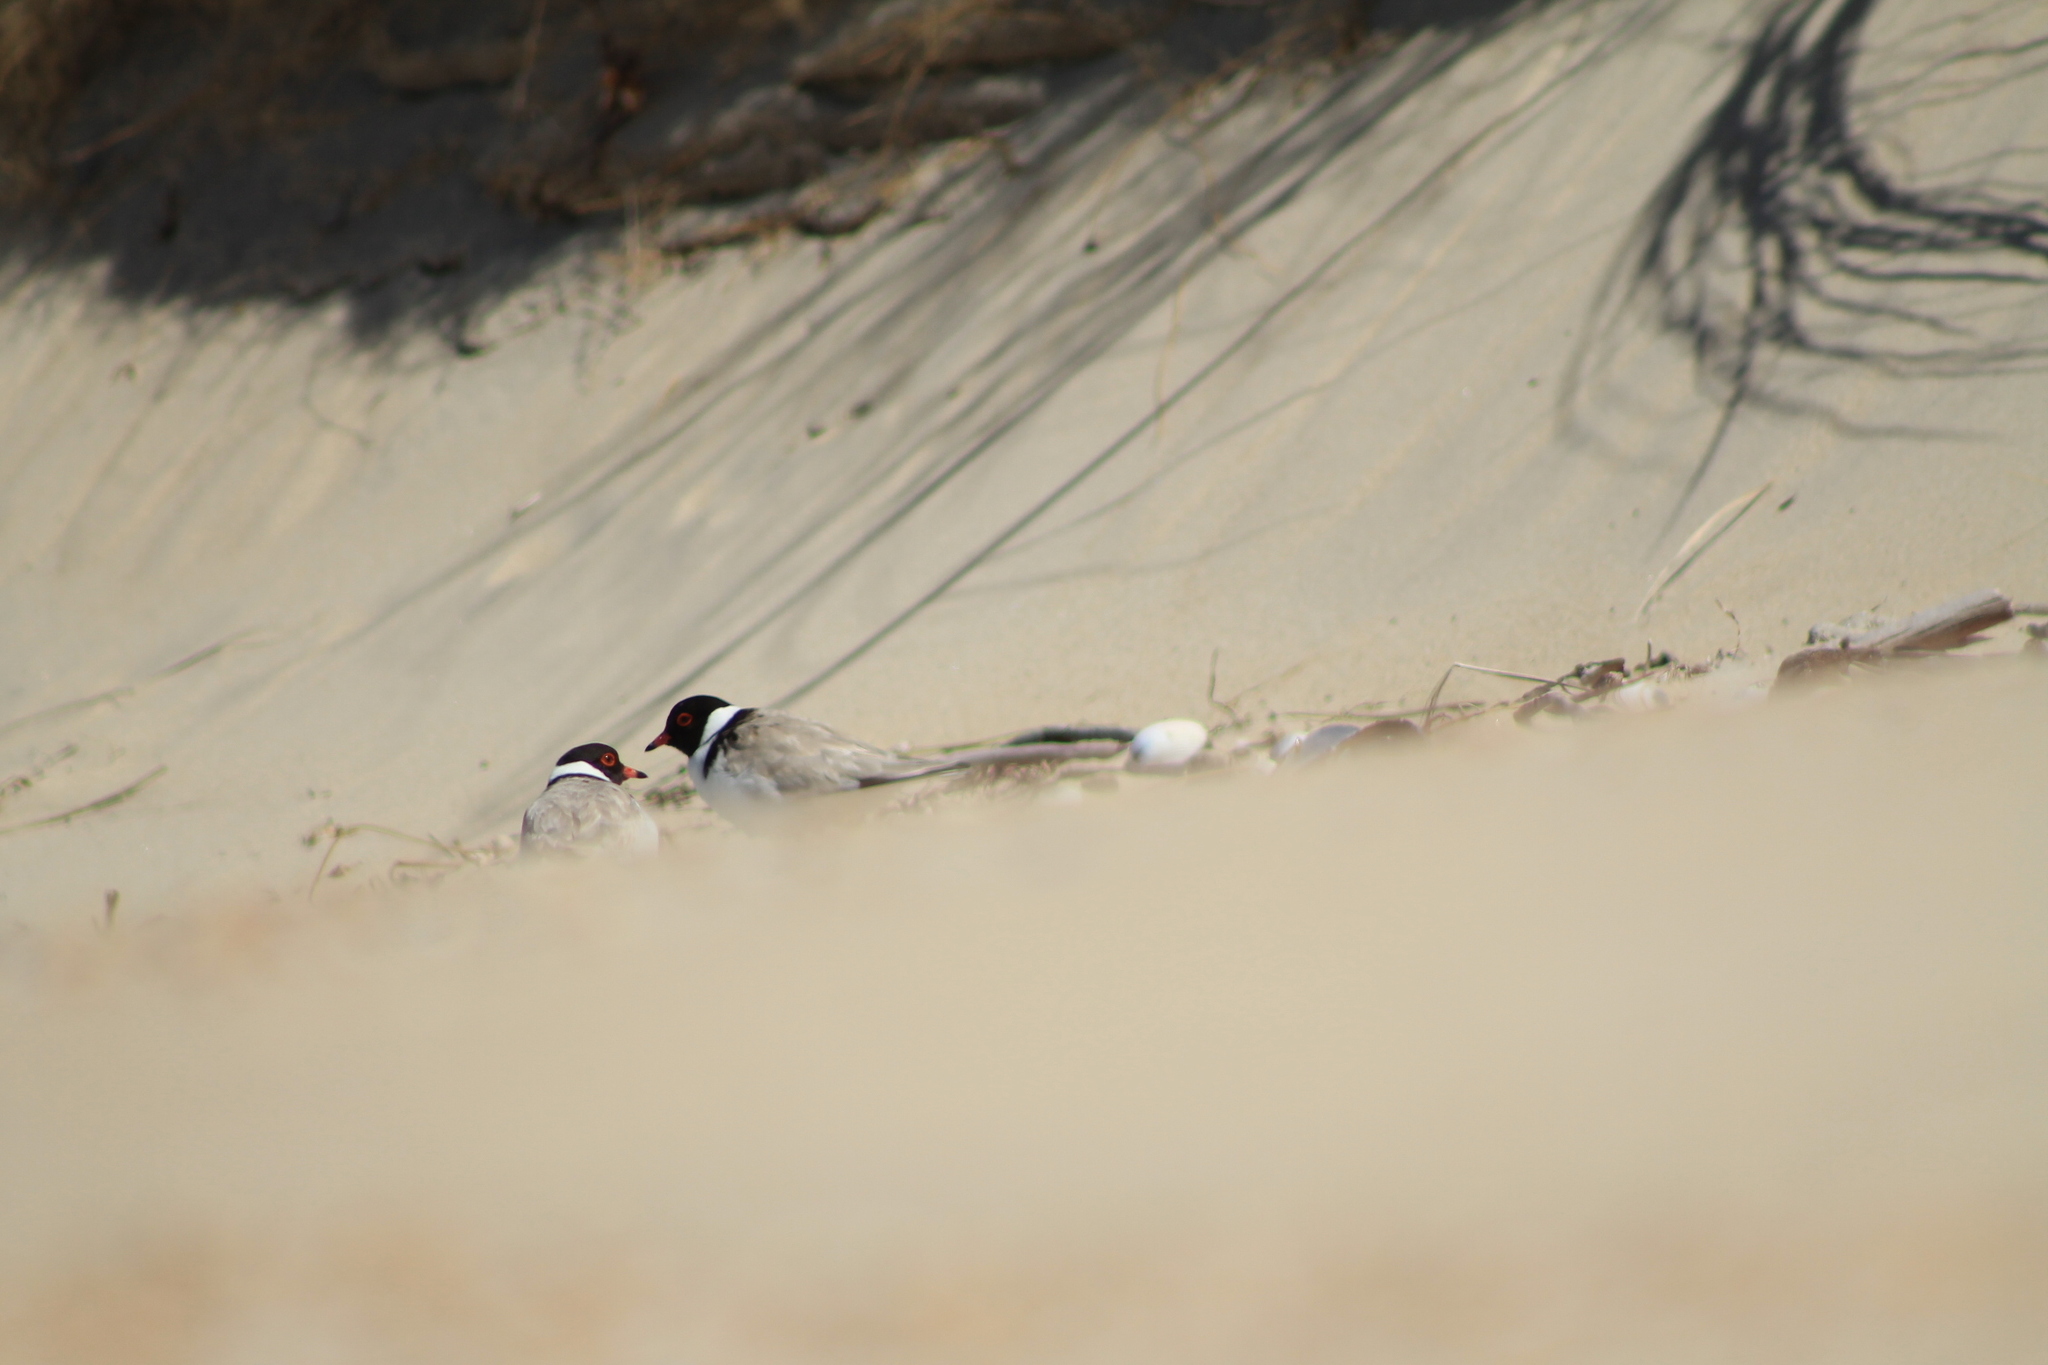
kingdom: Animalia
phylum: Chordata
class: Aves
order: Charadriiformes
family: Charadriidae
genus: Thinornis
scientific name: Thinornis cucullatus
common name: Hooded dotterel
